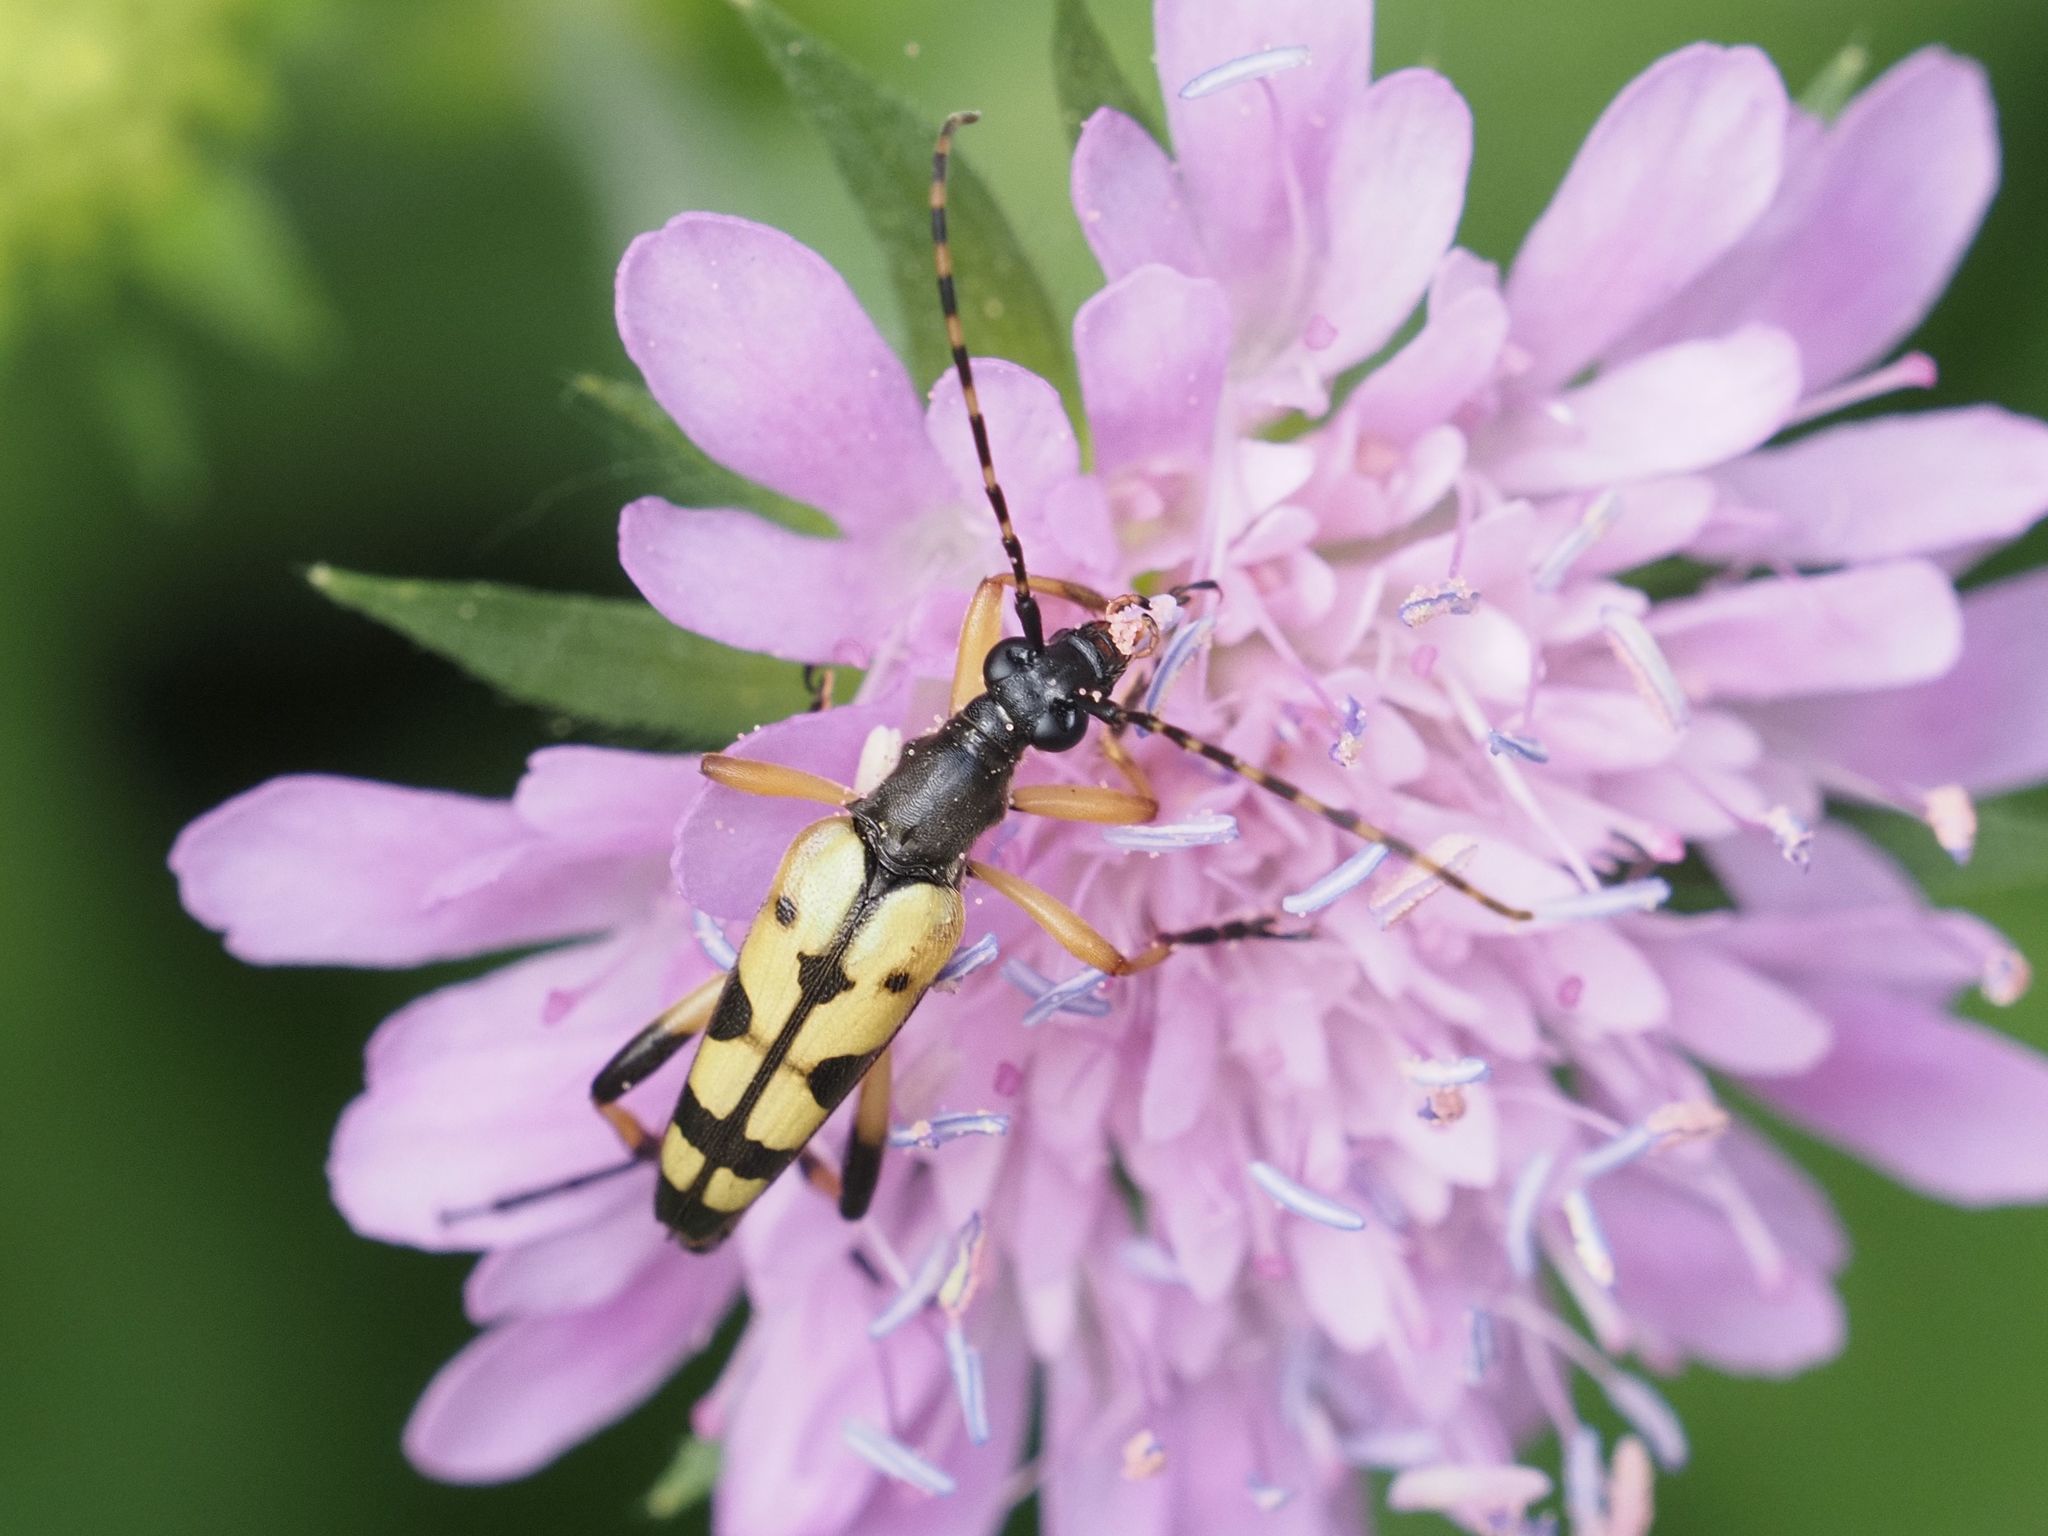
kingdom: Animalia
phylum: Arthropoda
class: Insecta
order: Coleoptera
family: Cerambycidae
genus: Rutpela
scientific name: Rutpela maculata
